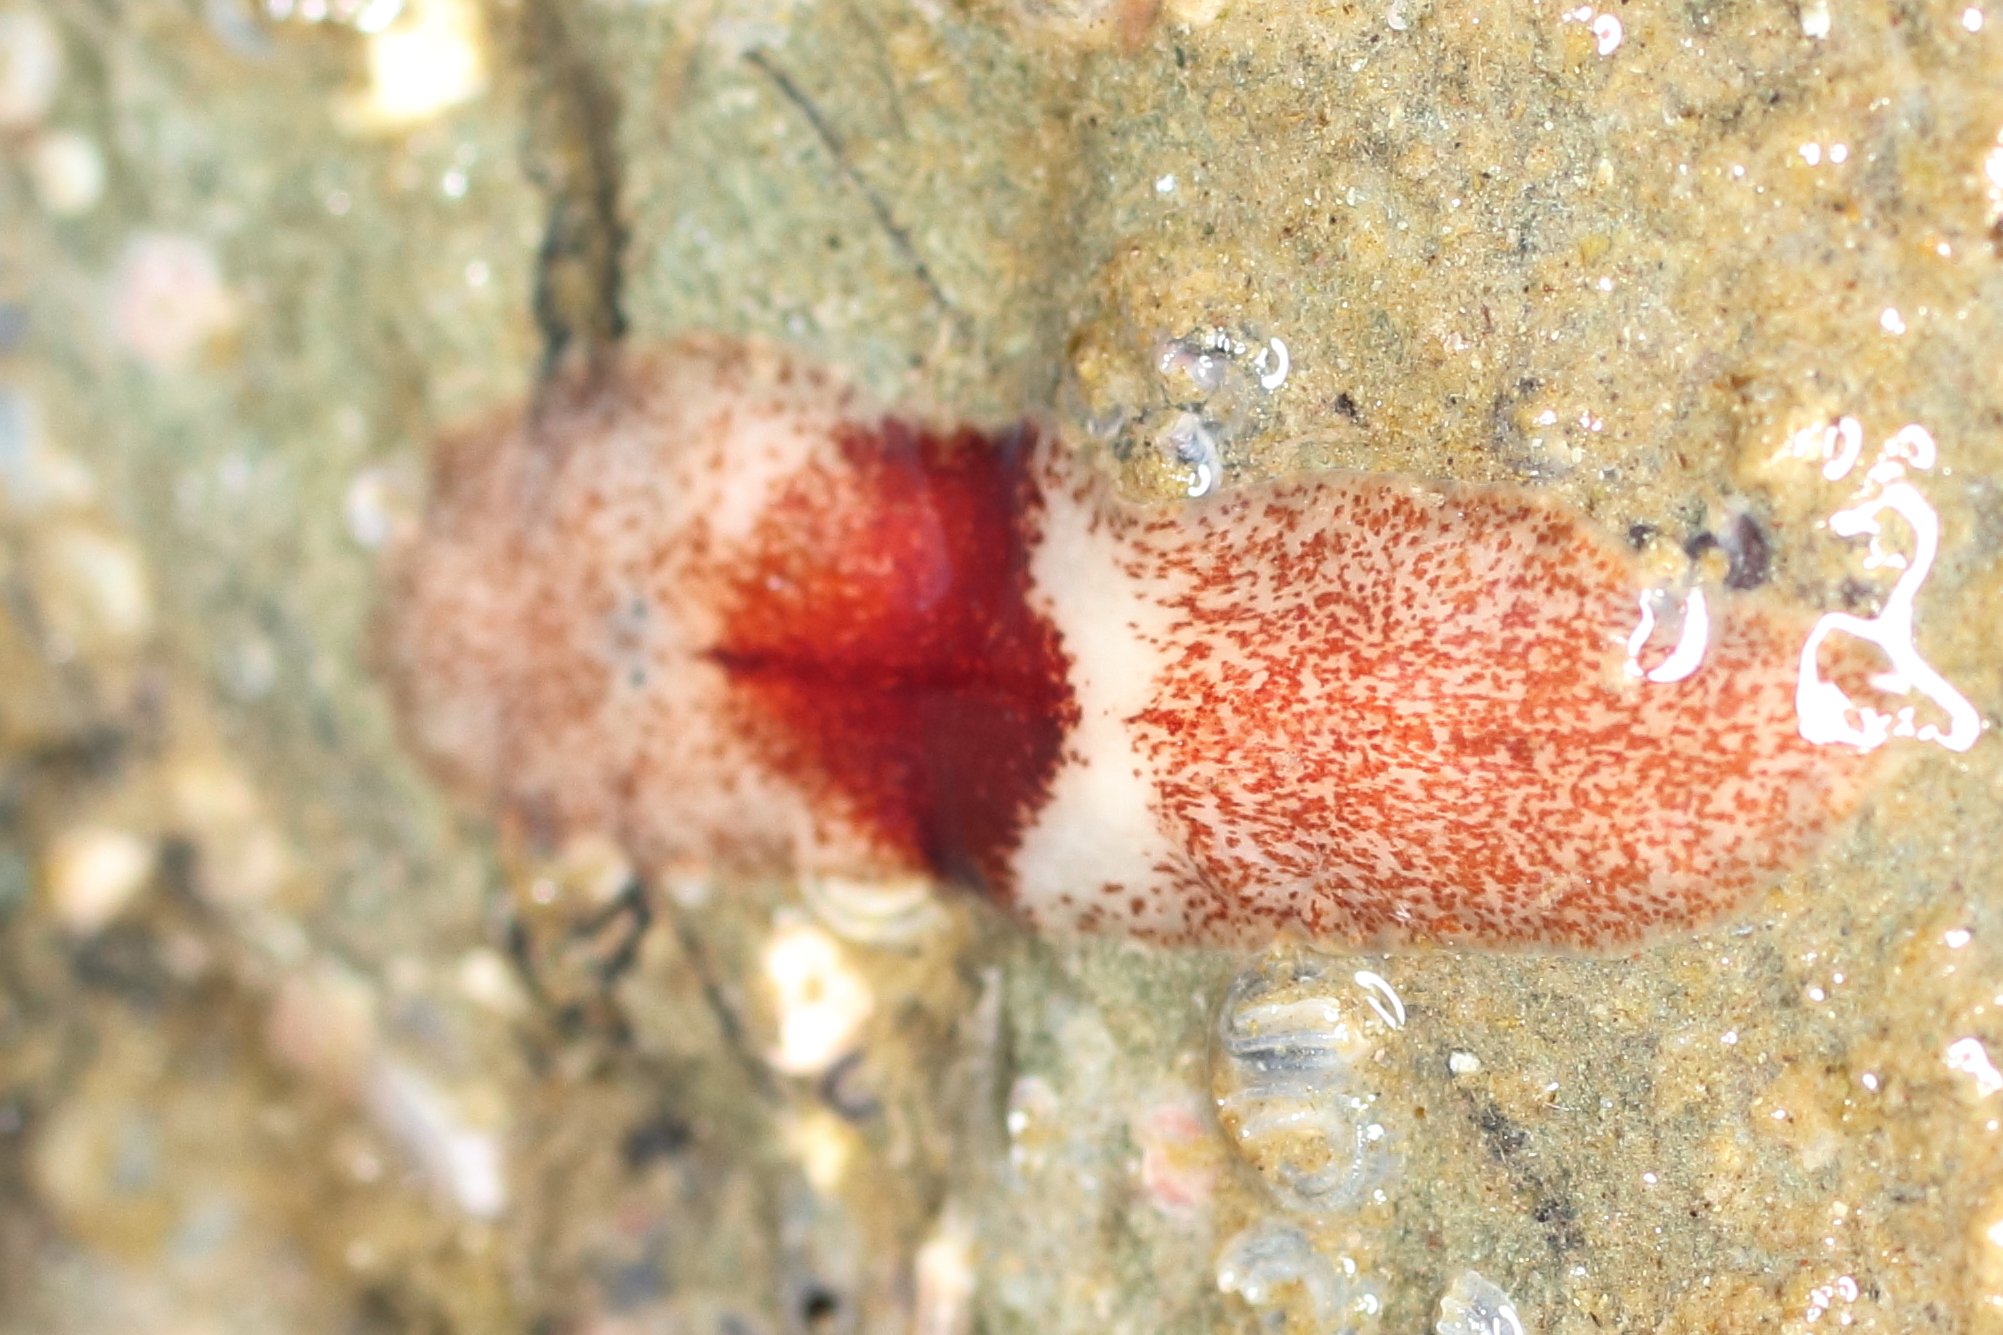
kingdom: Animalia
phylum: Platyhelminthes
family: Notocomplanidae
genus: Notocomplana
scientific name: Notocomplana sanguinea
